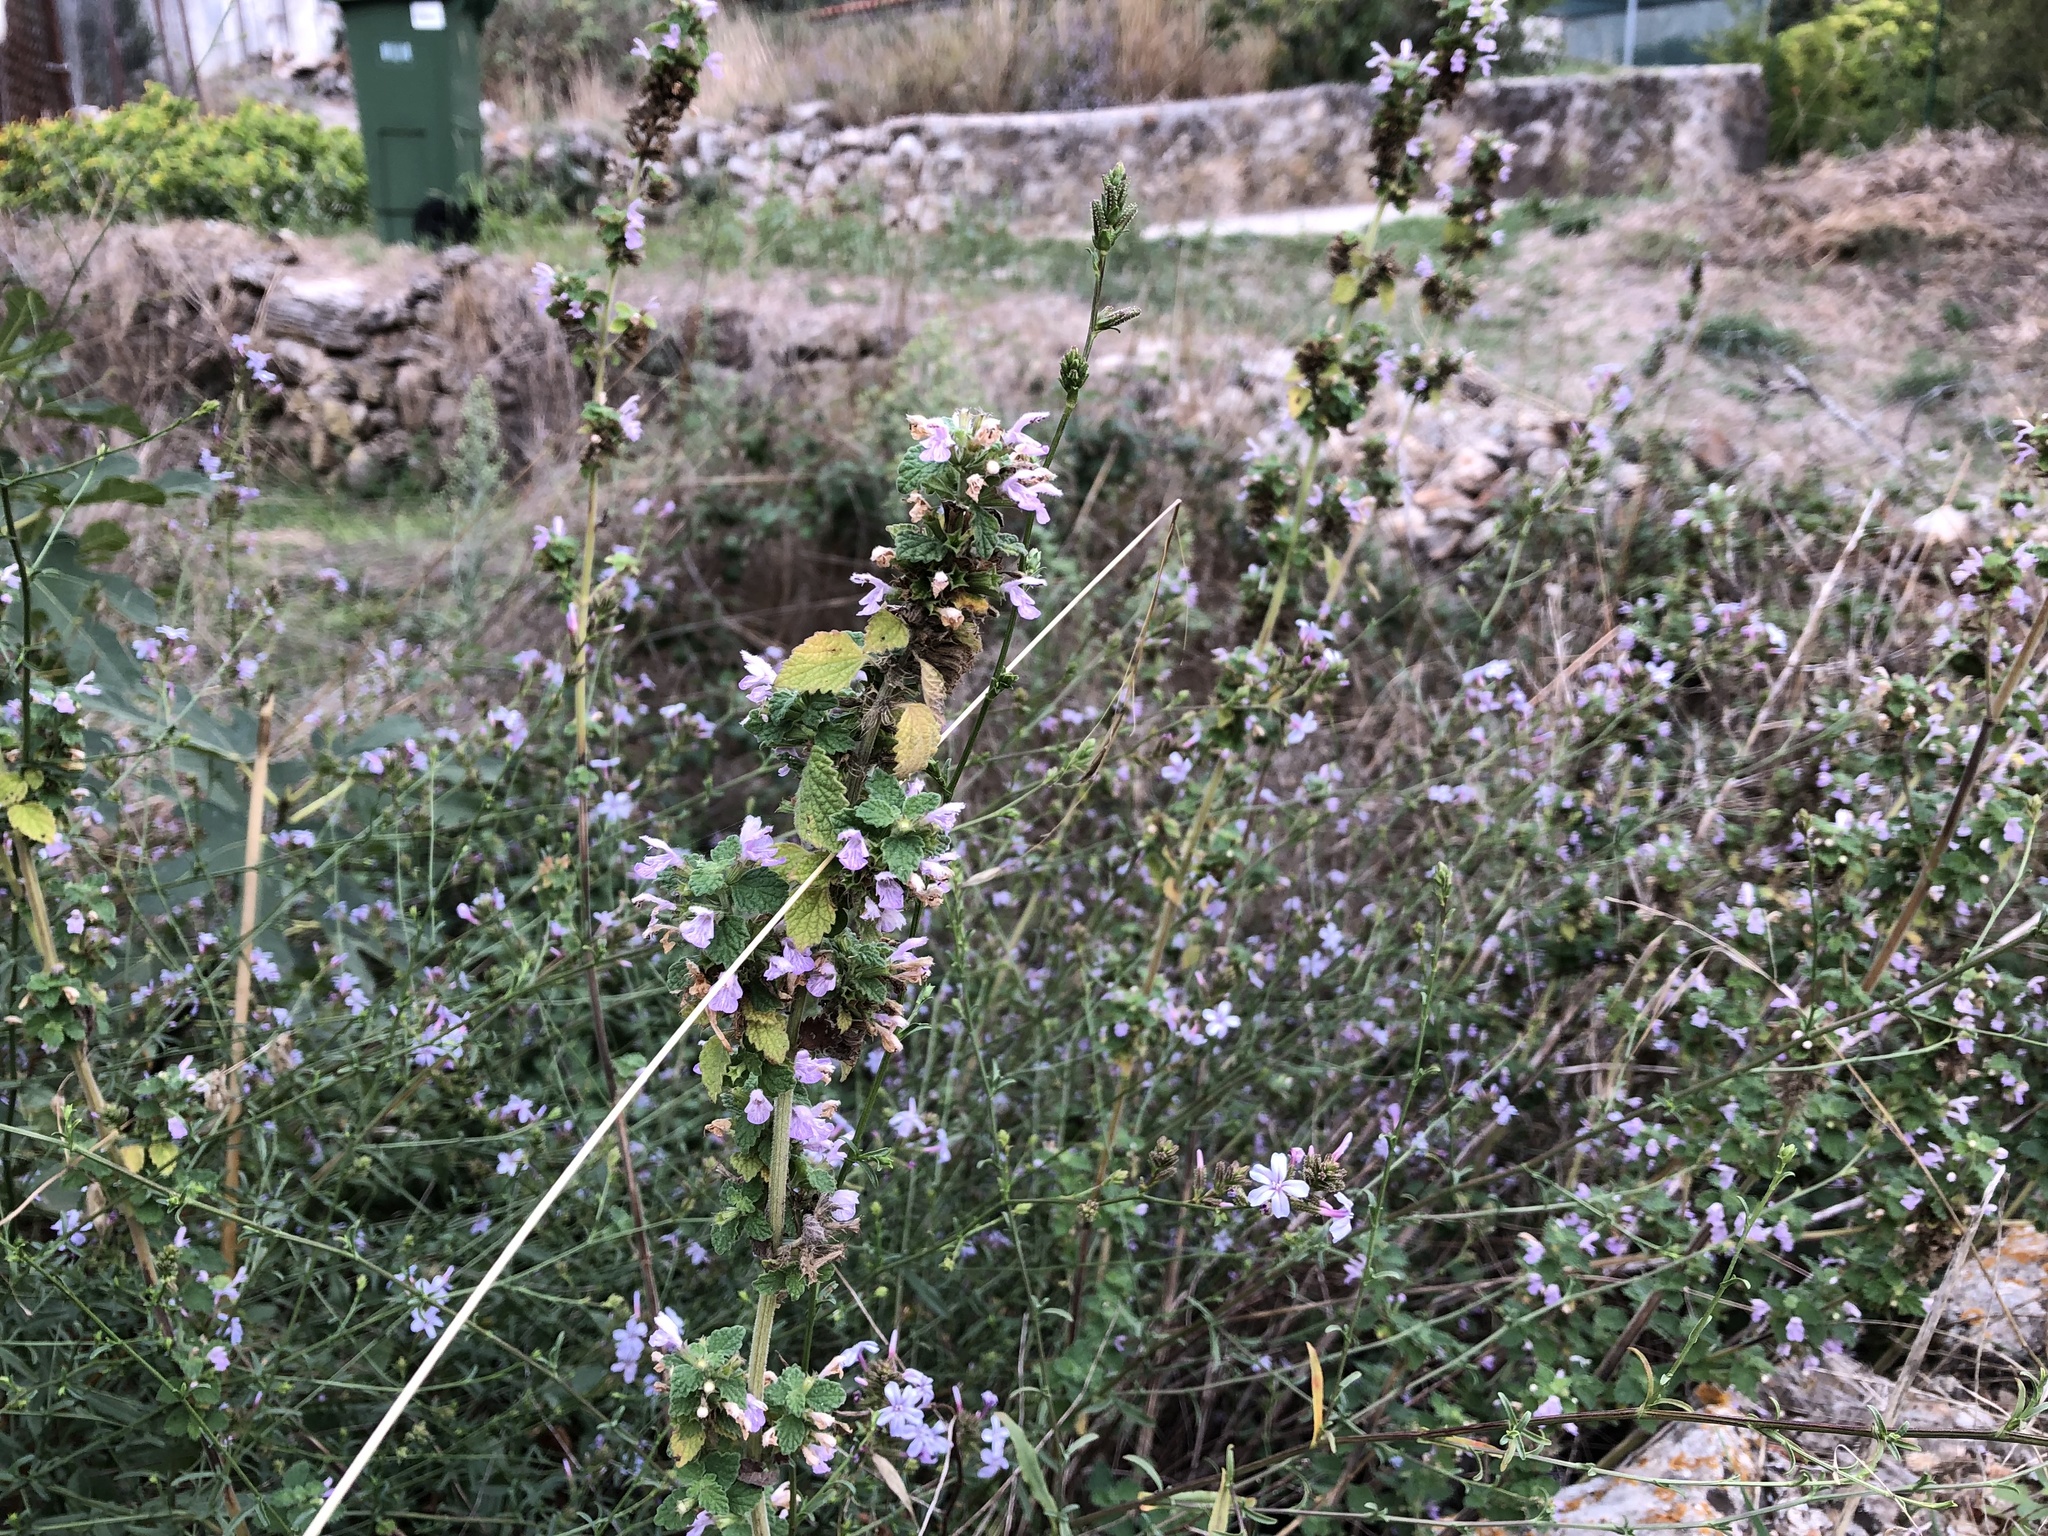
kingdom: Plantae
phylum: Tracheophyta
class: Magnoliopsida
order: Lamiales
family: Lamiaceae
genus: Ballota
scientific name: Ballota nigra
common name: Black horehound
